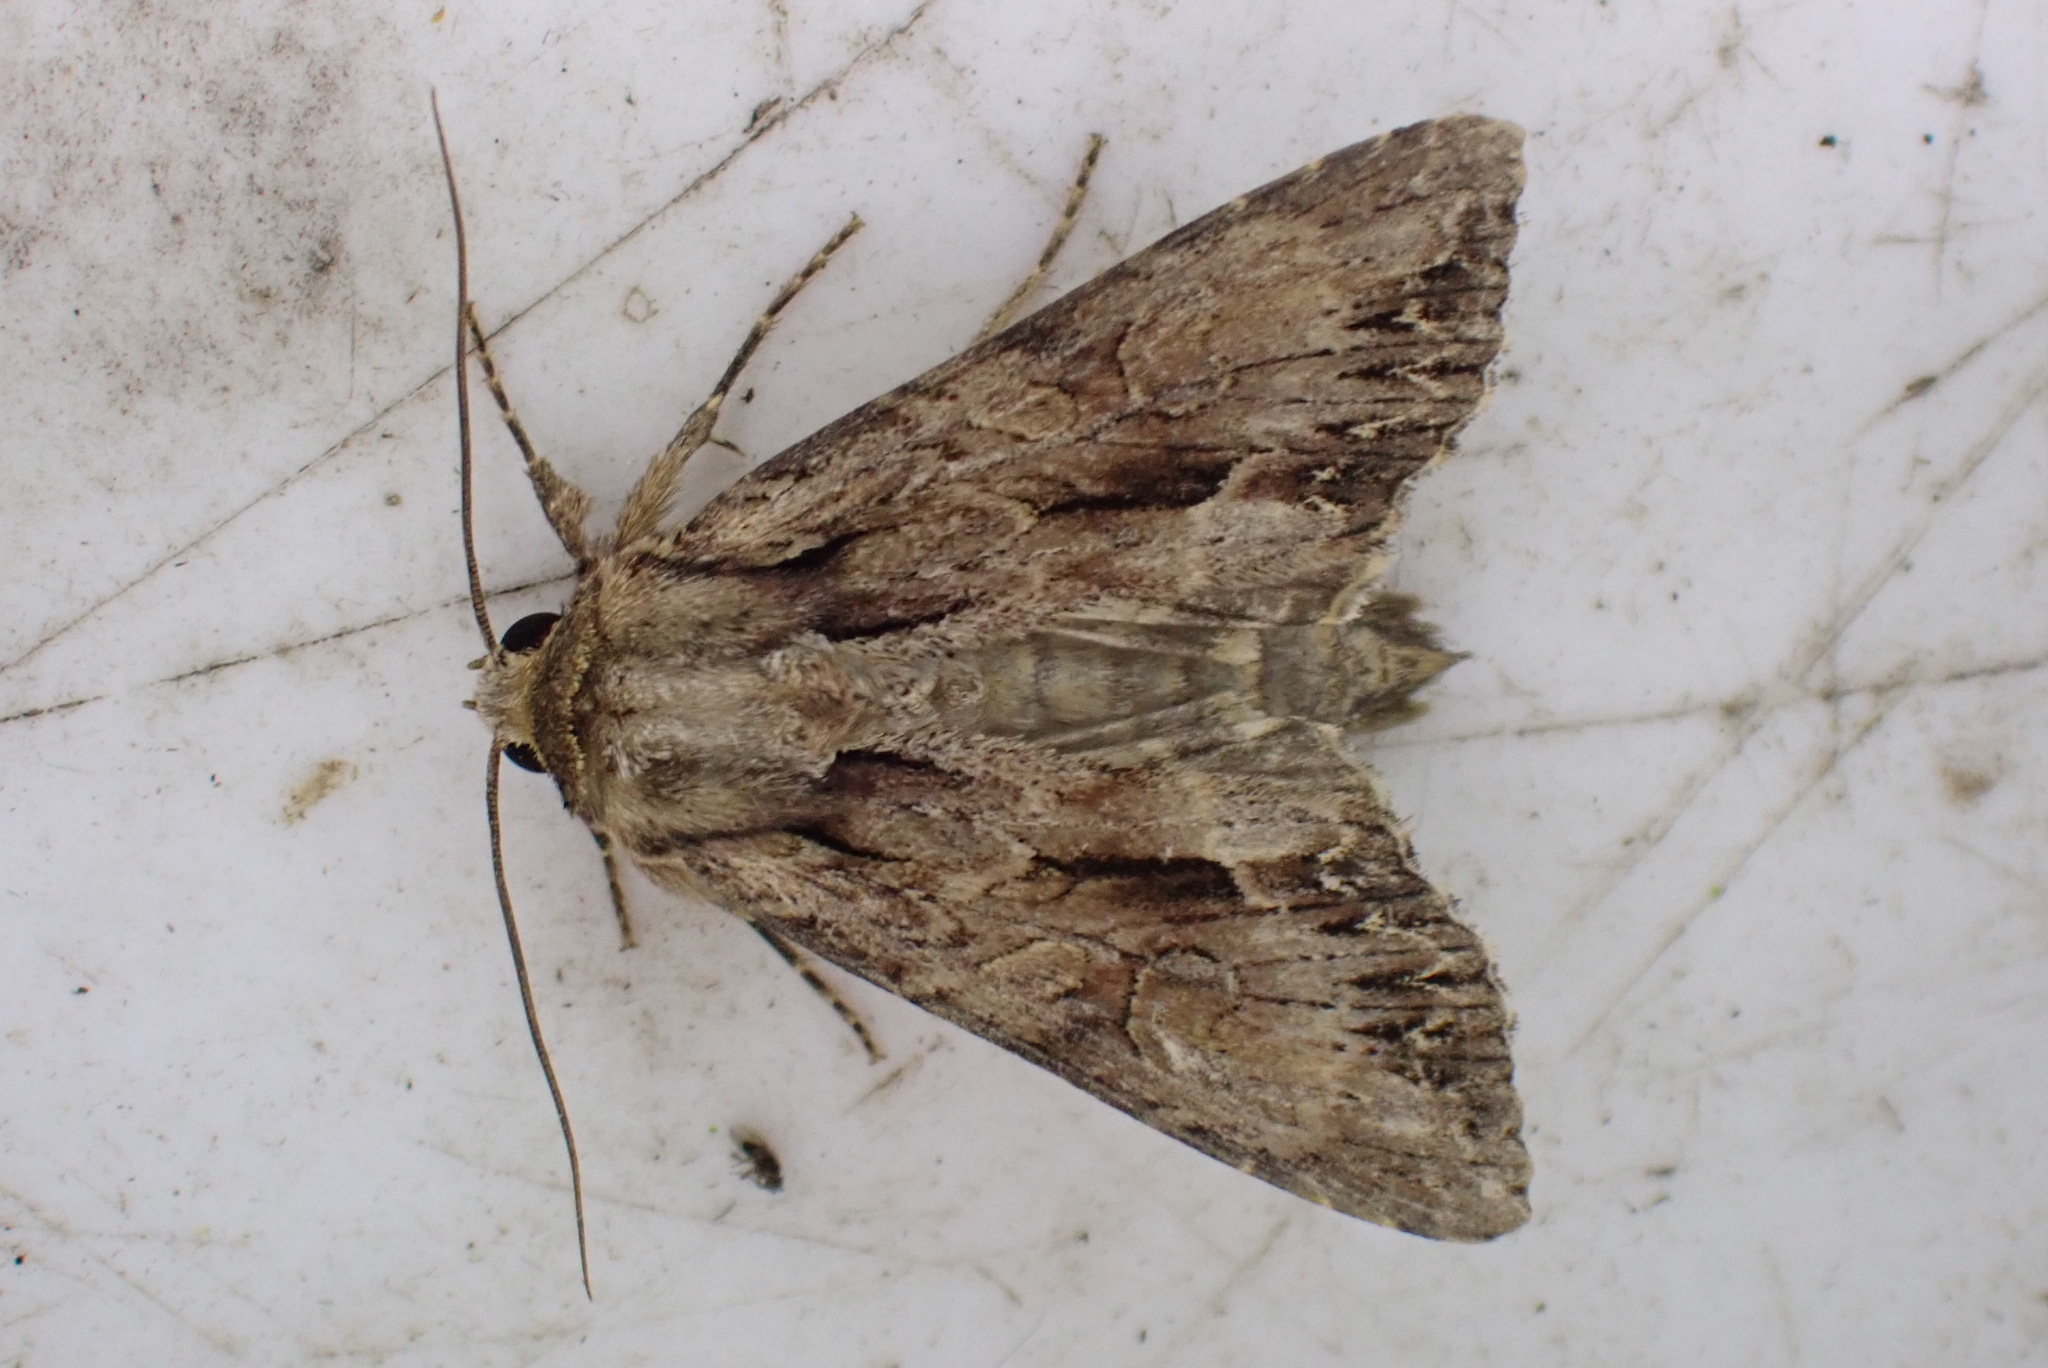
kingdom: Animalia
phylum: Arthropoda
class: Insecta
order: Lepidoptera
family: Noctuidae
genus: Apamea
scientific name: Apamea monoglypha
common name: Dark arches
